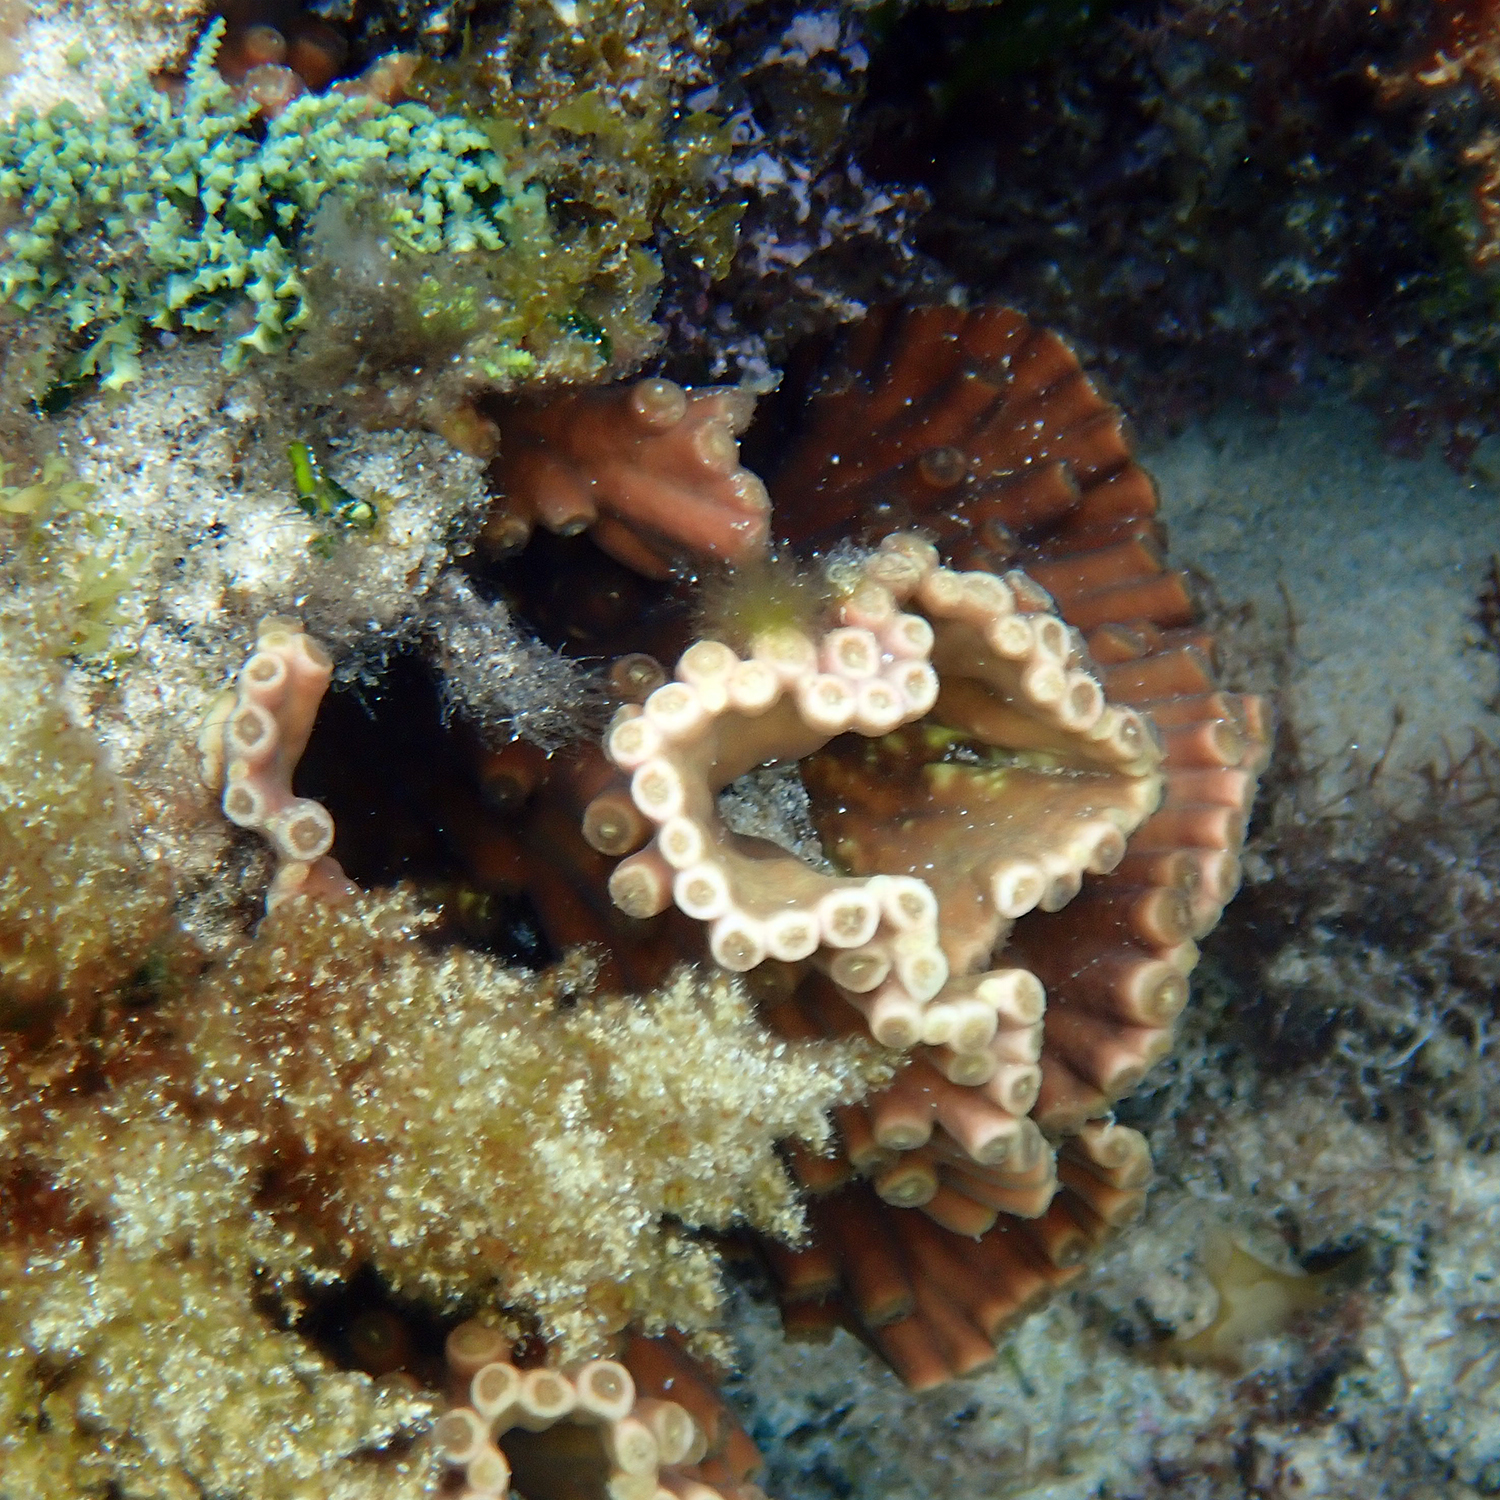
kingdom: Animalia
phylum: Cnidaria
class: Anthozoa
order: Scleractinia
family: Dendrophylliidae
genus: Turbinaria
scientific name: Turbinaria heronensis
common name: Disc coral
